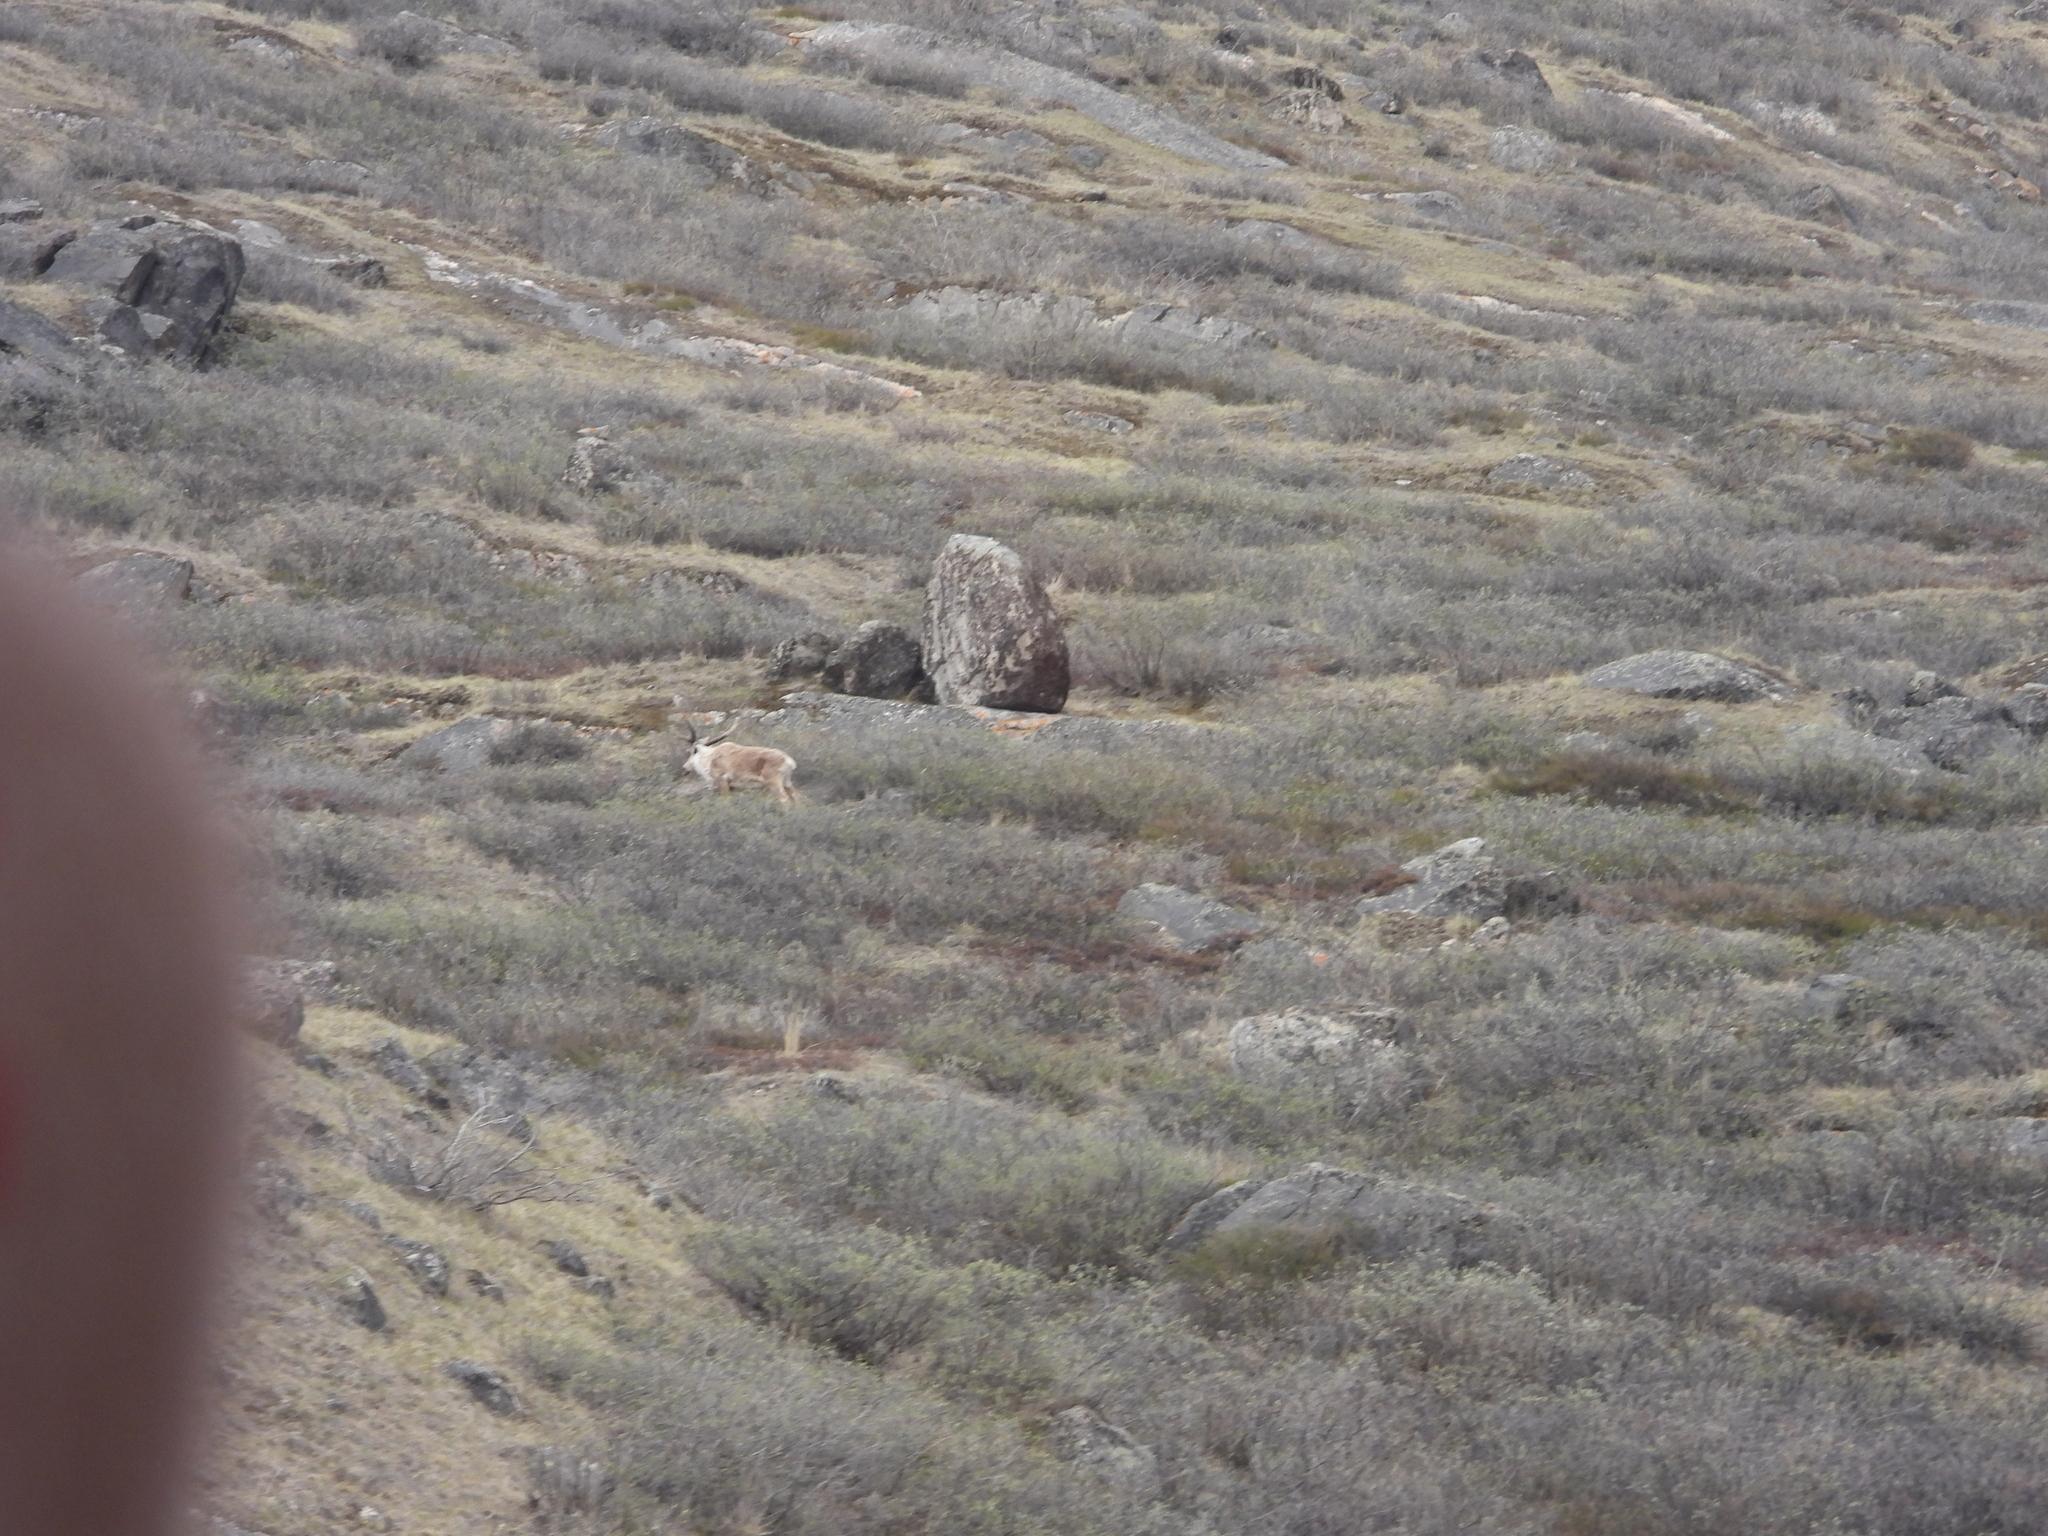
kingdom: Animalia
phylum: Chordata
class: Mammalia
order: Artiodactyla
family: Cervidae
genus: Rangifer
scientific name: Rangifer tarandus
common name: Reindeer
